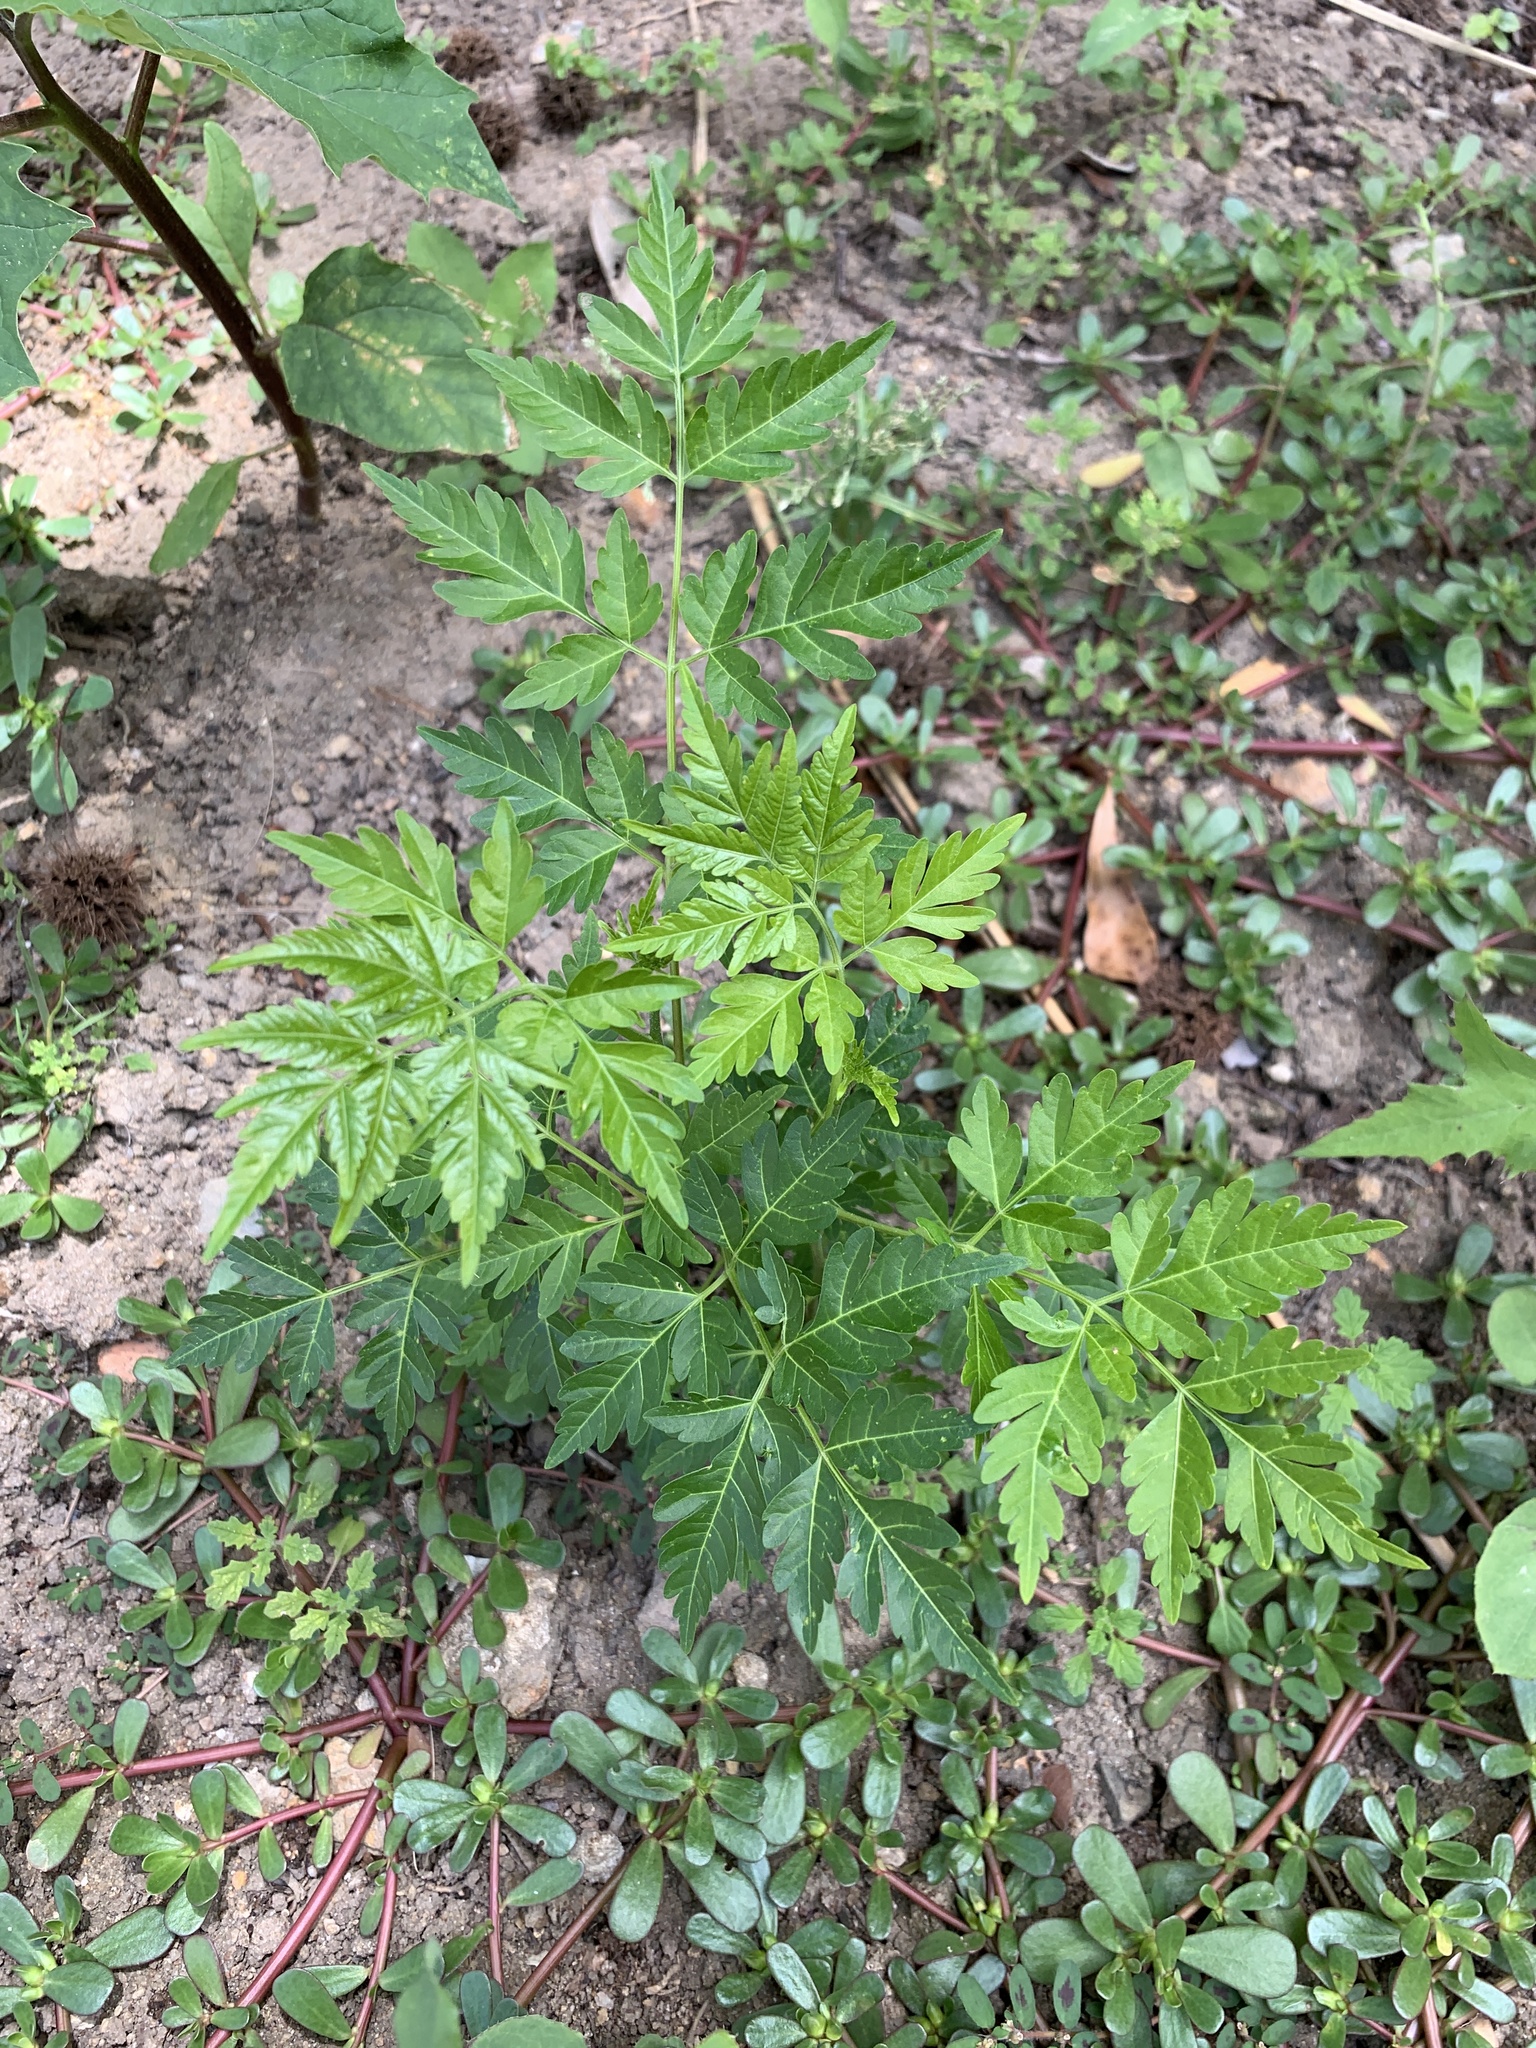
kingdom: Plantae
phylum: Tracheophyta
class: Magnoliopsida
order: Sapindales
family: Meliaceae
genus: Melia
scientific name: Melia azedarach
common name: Chinaberrytree
